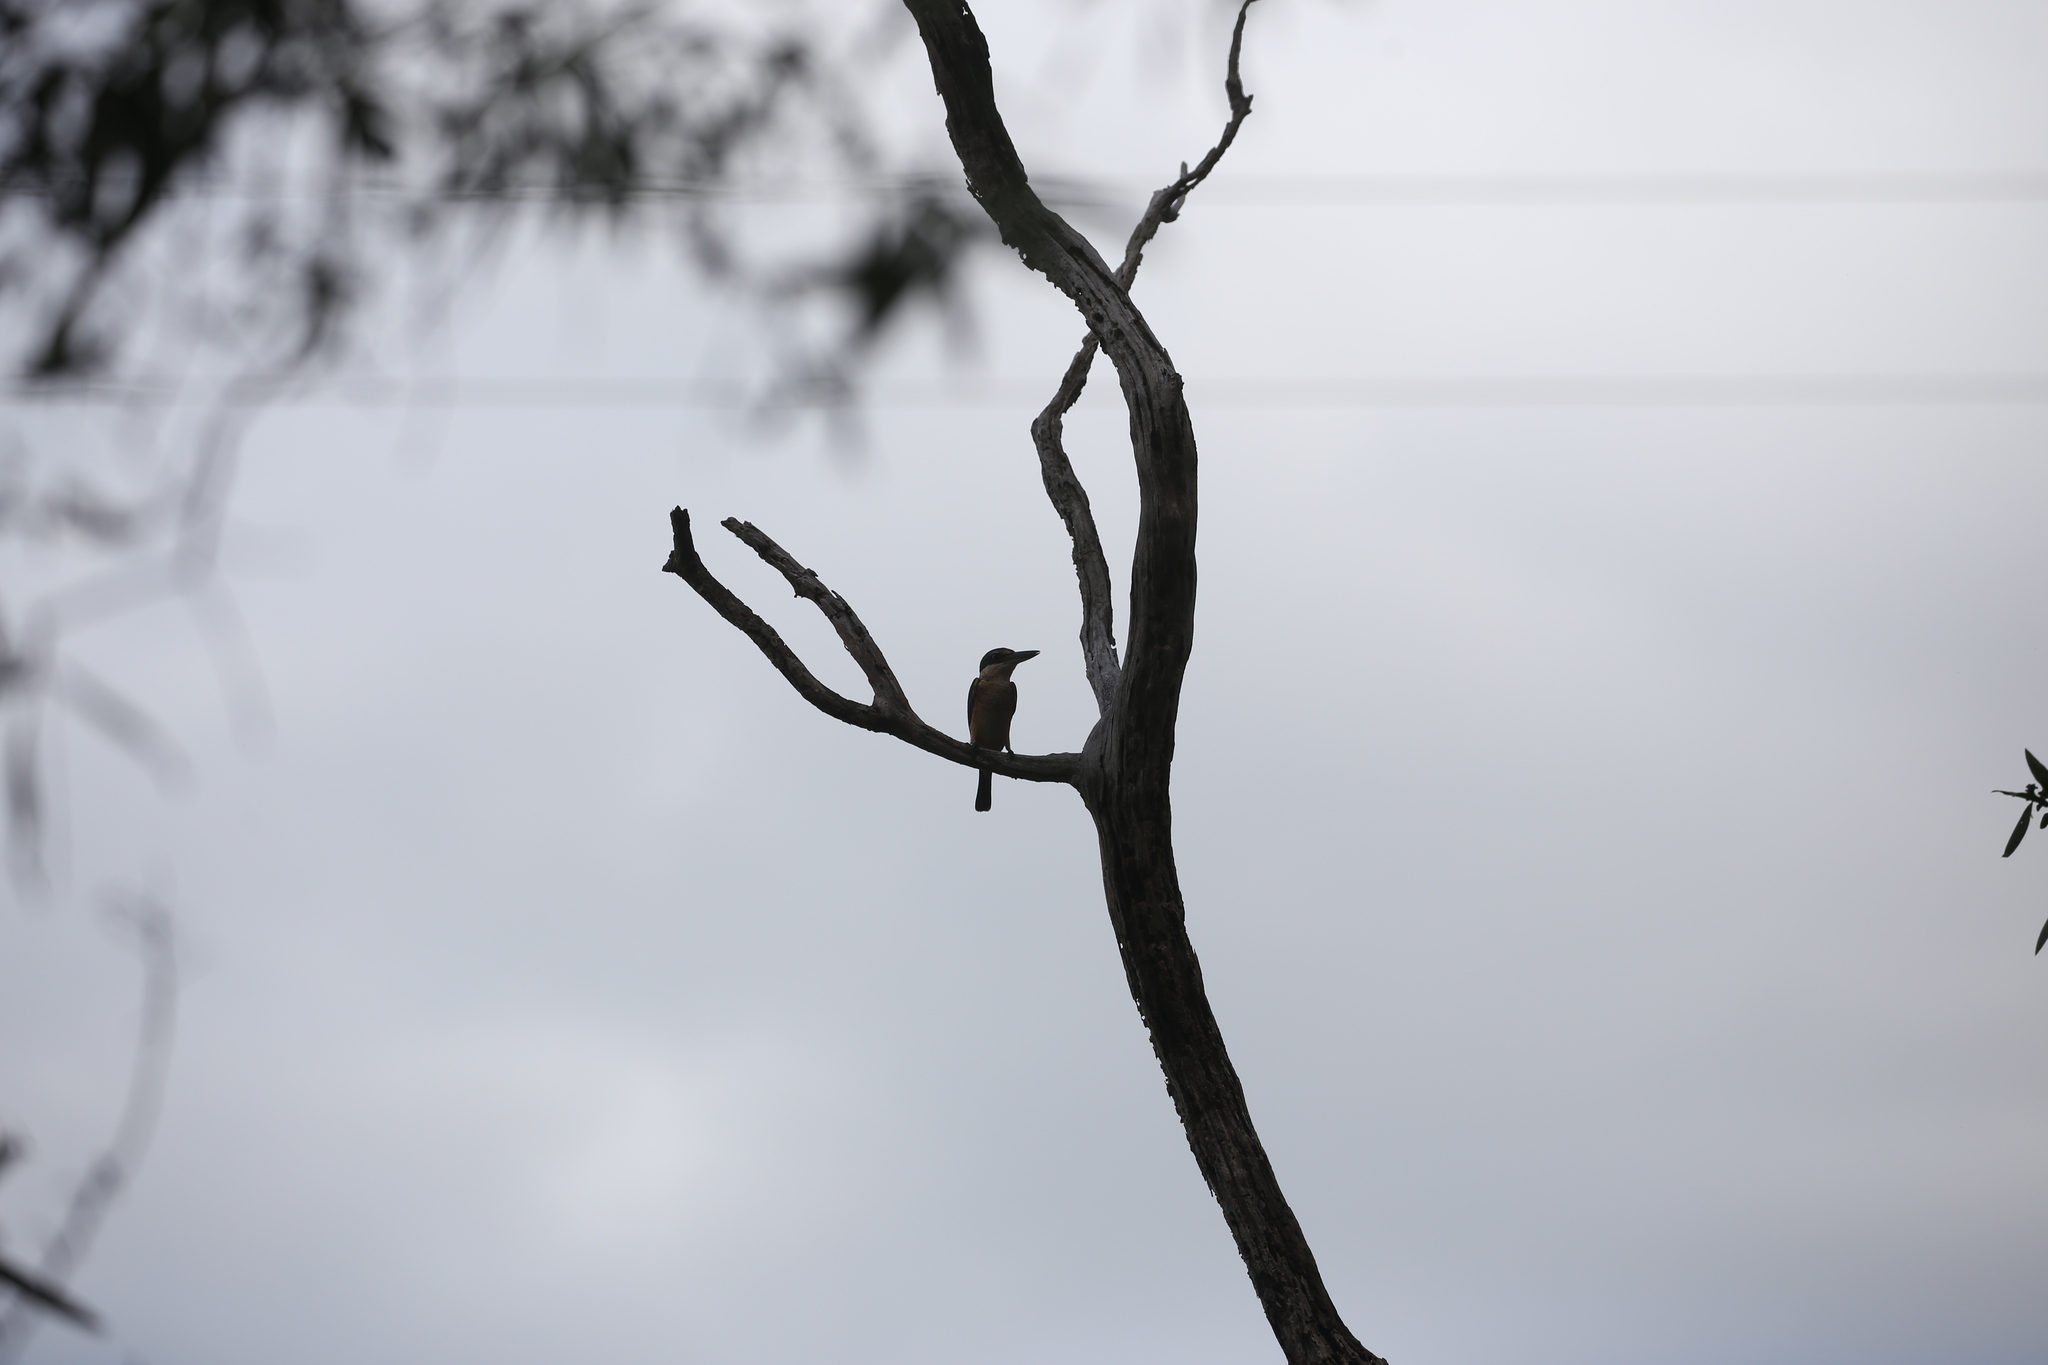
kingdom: Animalia
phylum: Chordata
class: Aves
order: Coraciiformes
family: Alcedinidae
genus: Todiramphus
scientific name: Todiramphus sanctus
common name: Sacred kingfisher
